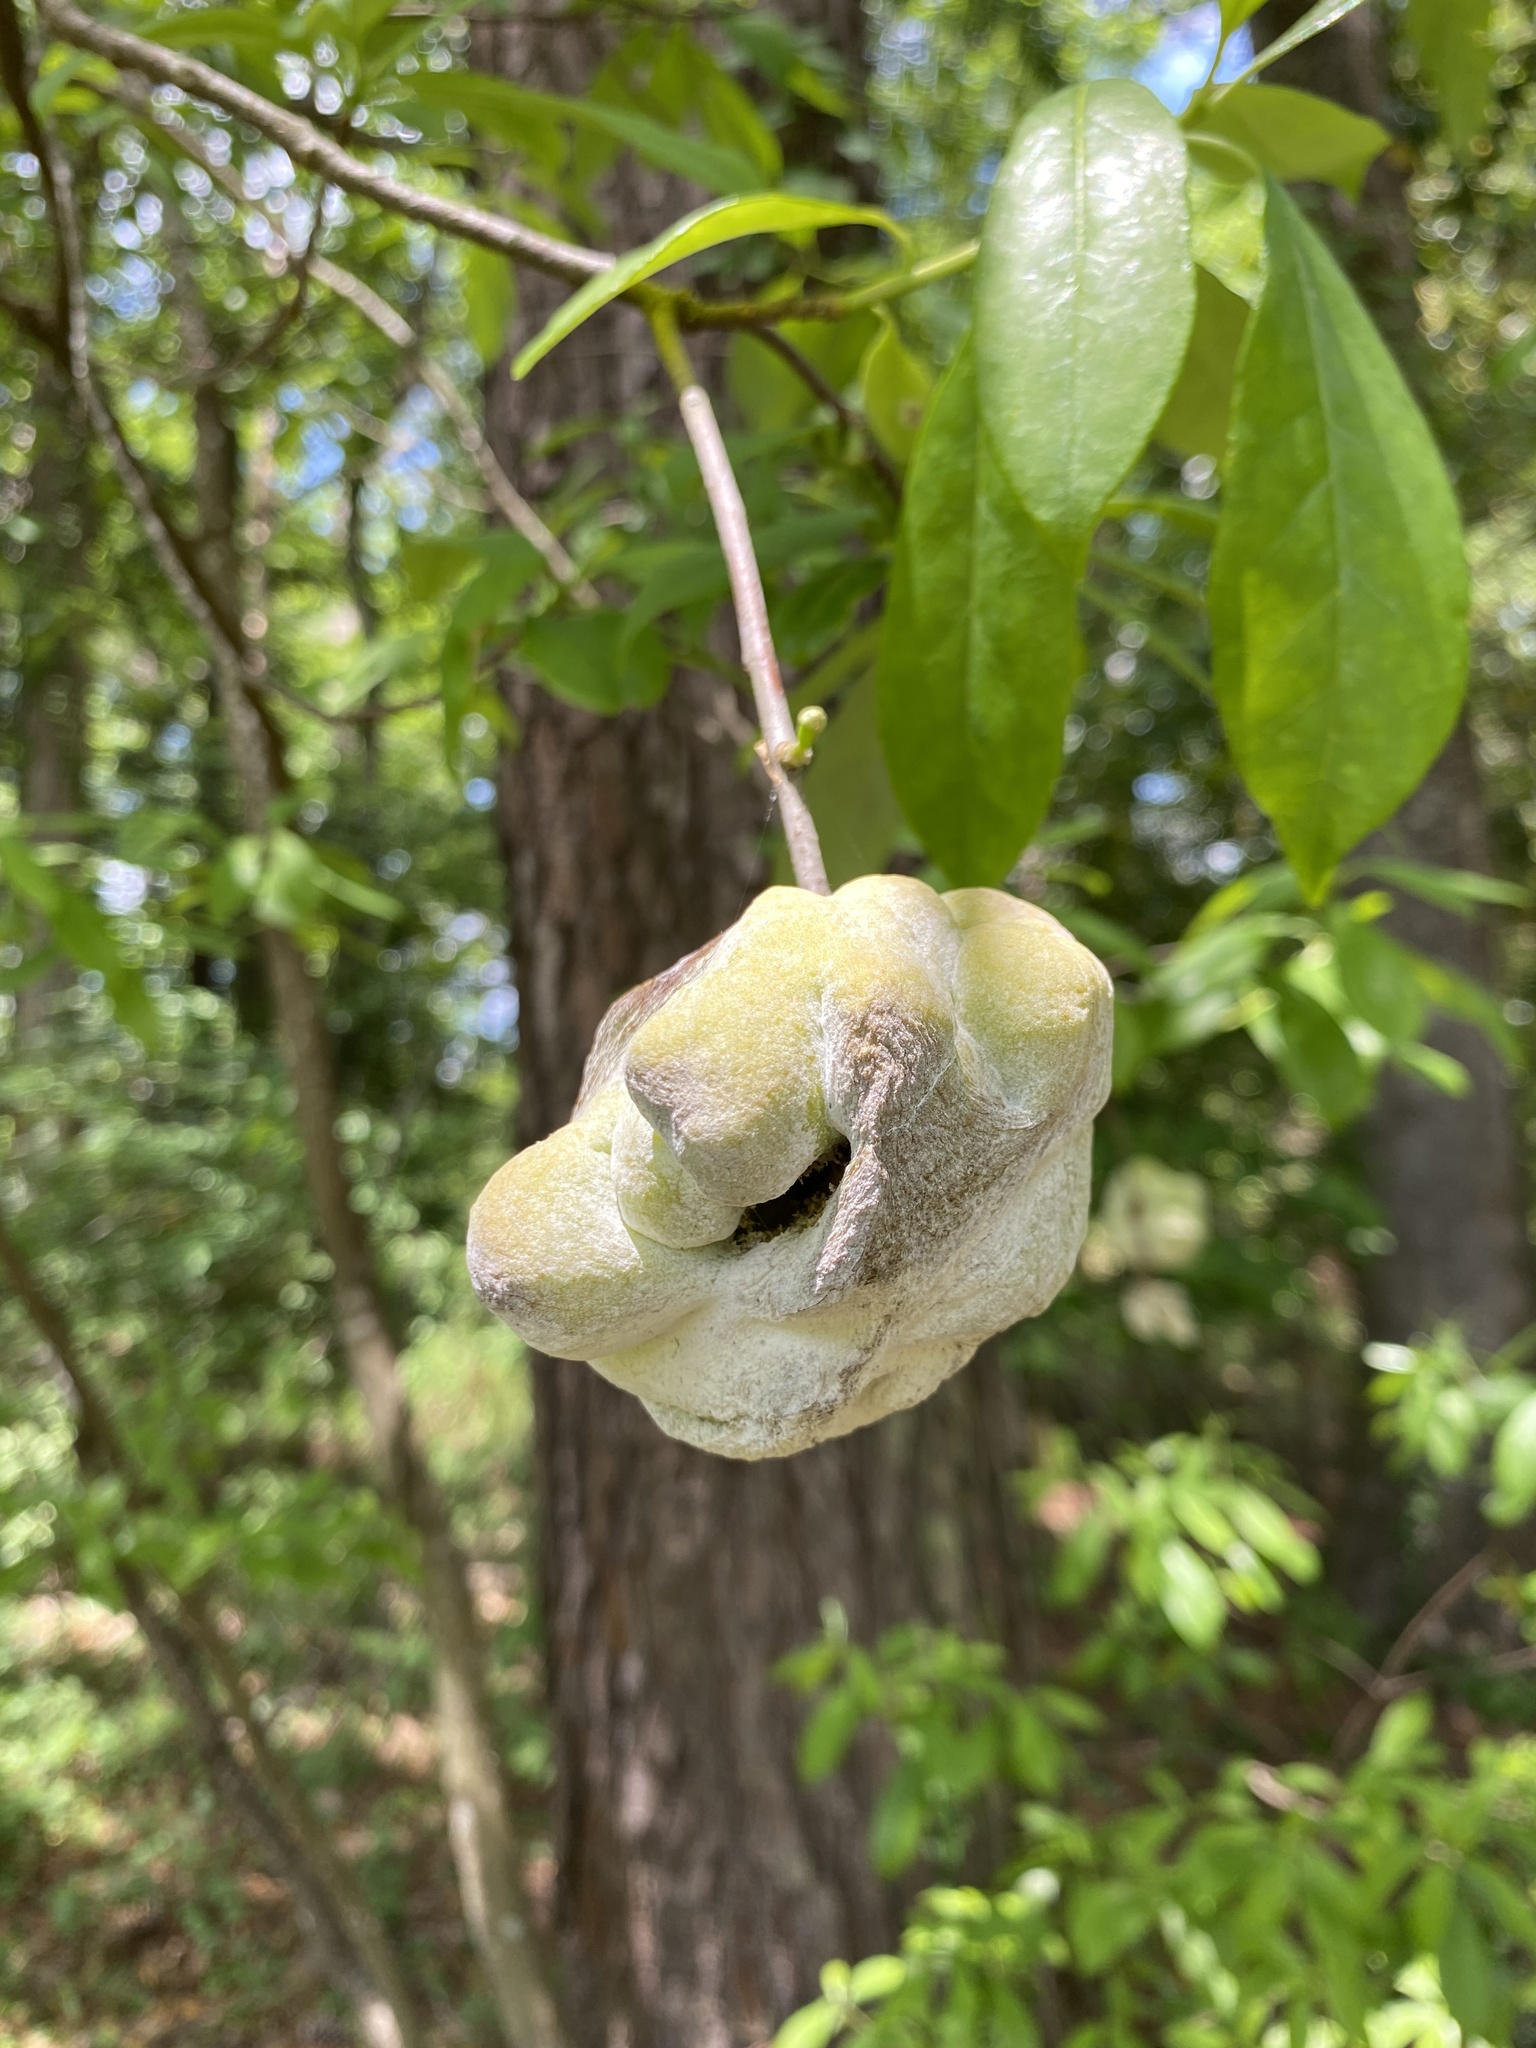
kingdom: Fungi
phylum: Basidiomycota
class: Exobasidiomycetes
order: Exobasidiales
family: Exobasidiaceae
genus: Exobasidium
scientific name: Exobasidium symploci
